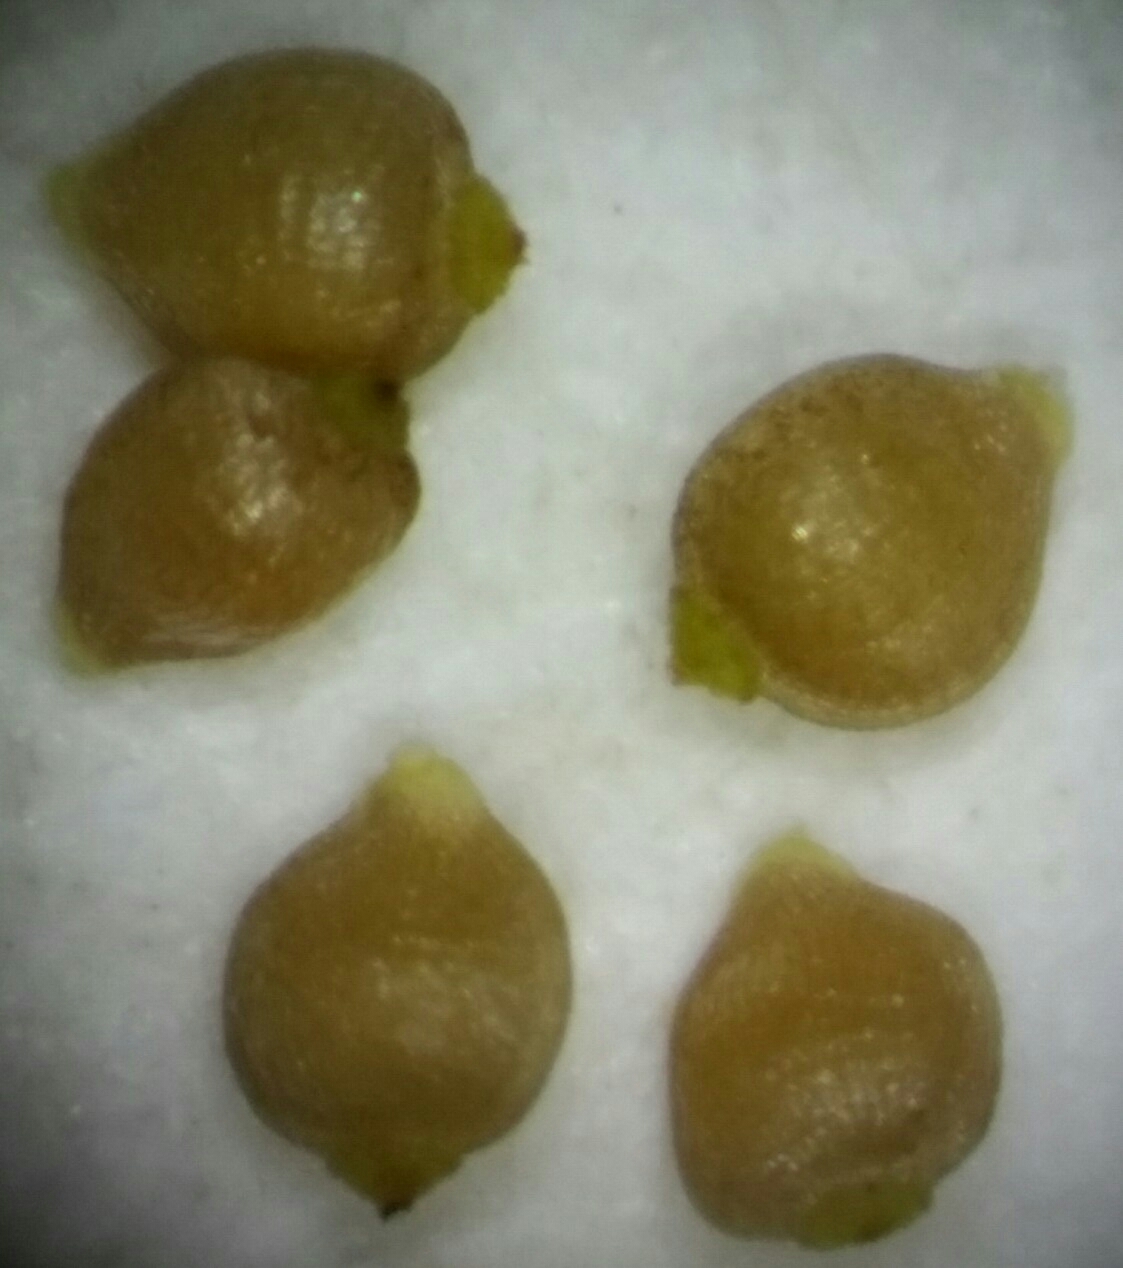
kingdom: Plantae
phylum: Tracheophyta
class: Liliopsida
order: Poales
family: Cyperaceae
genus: Rhynchospora
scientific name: Rhynchospora divergens
